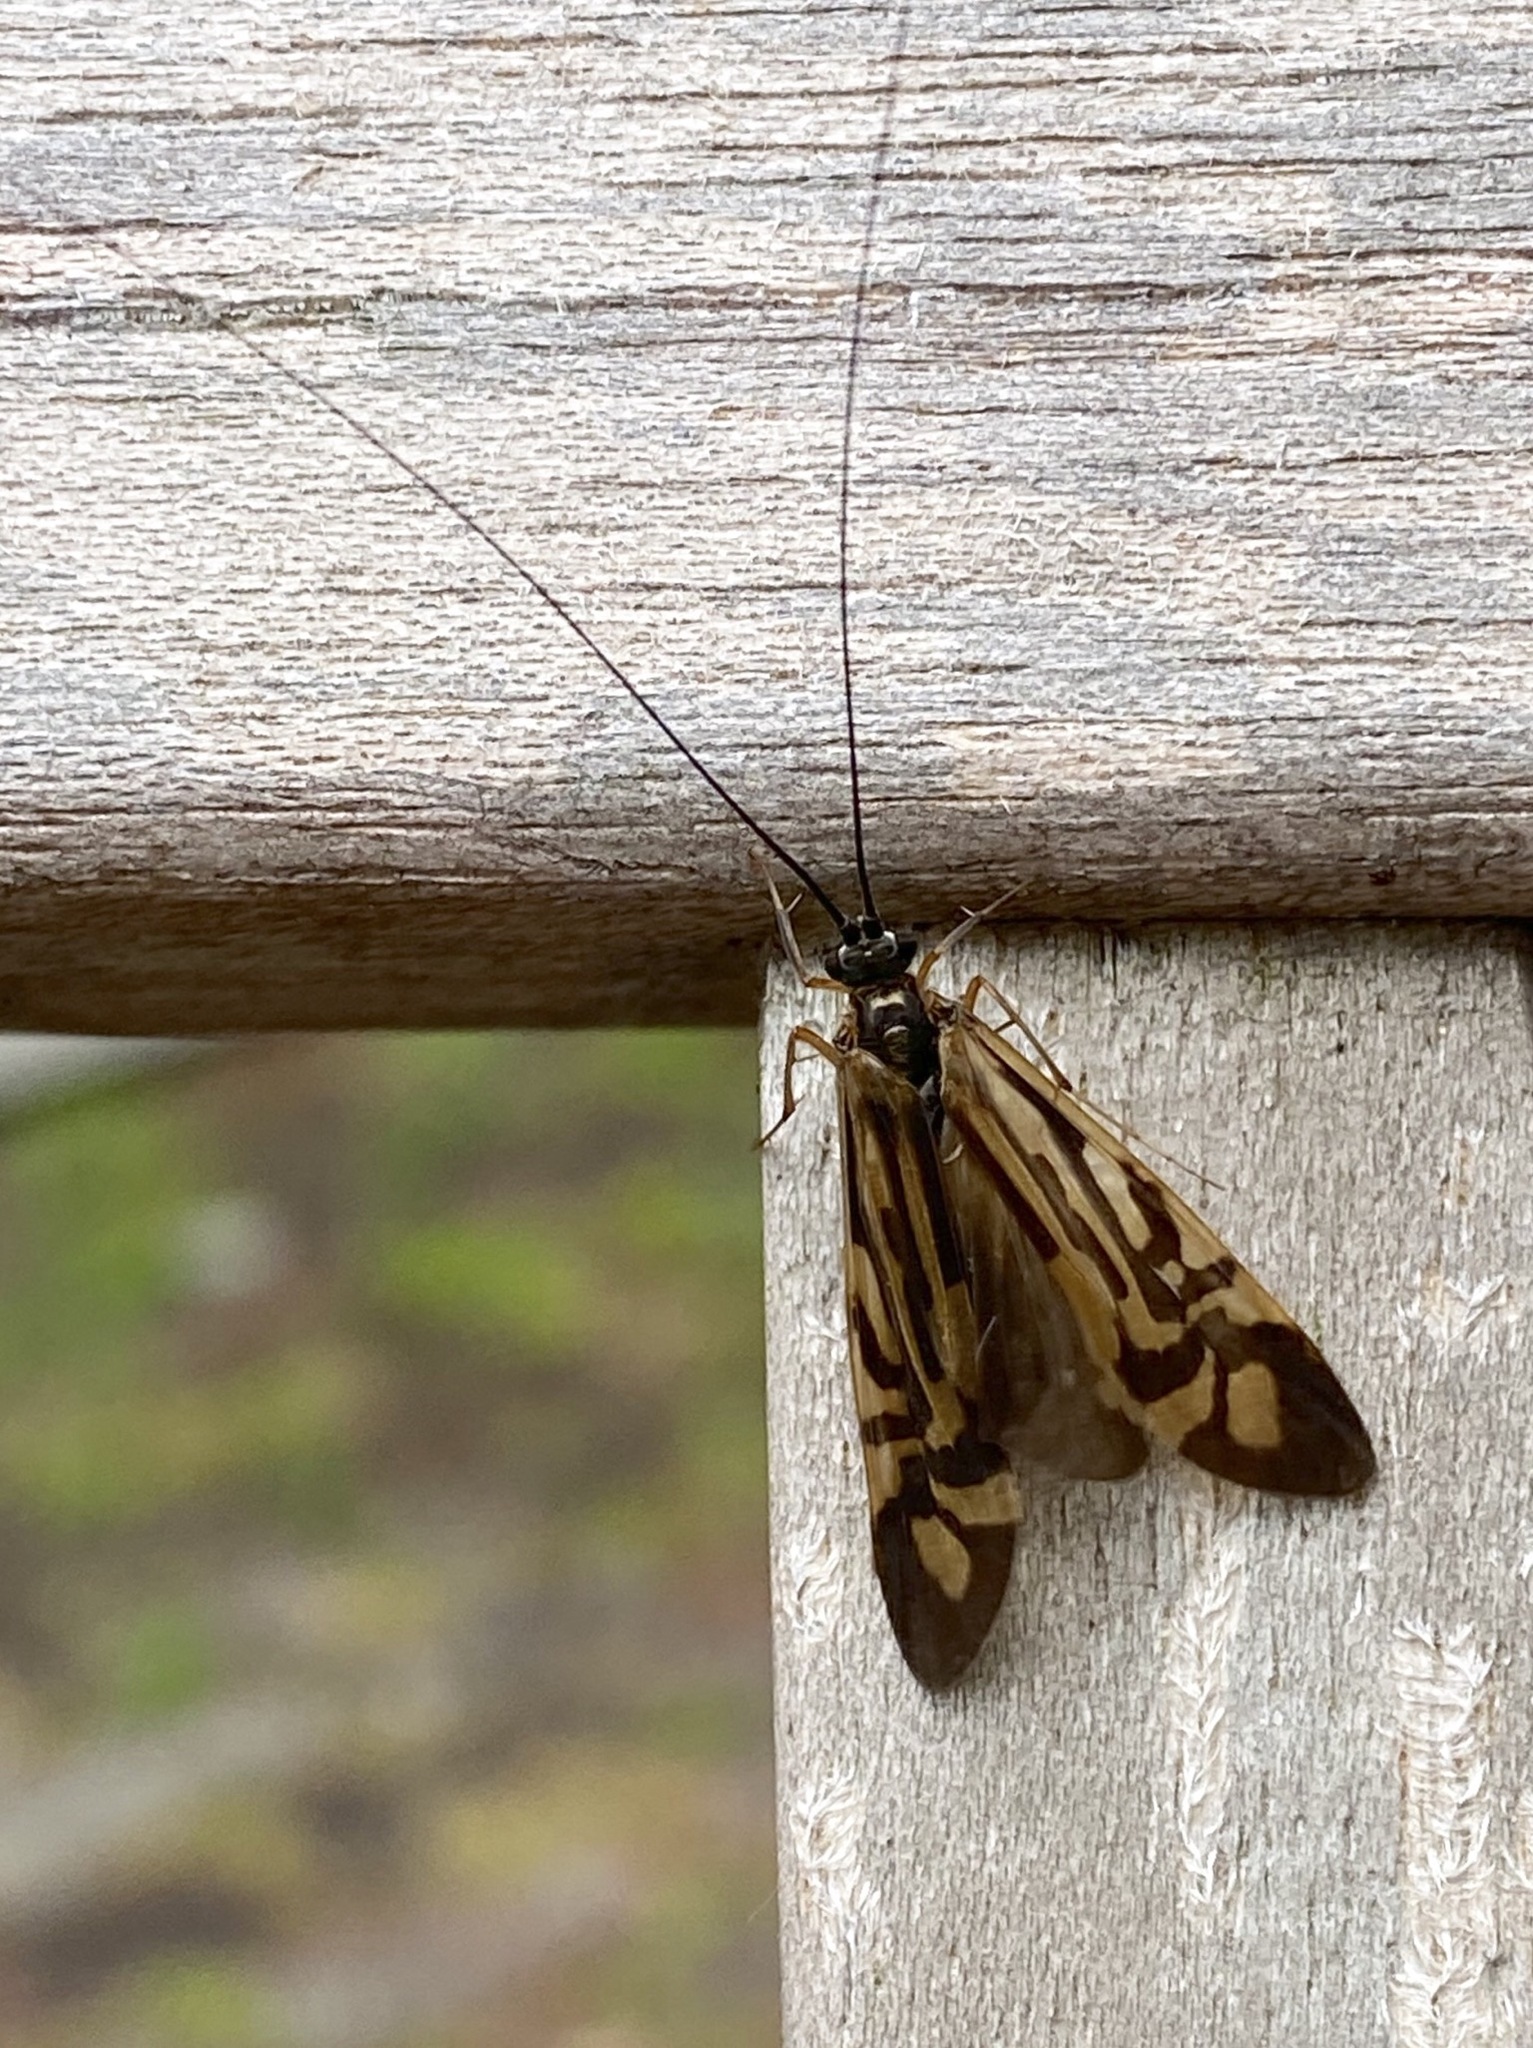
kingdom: Animalia
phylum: Arthropoda
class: Insecta
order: Trichoptera
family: Hydropsychidae
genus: Macrostemum
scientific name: Macrostemum zebratum
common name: Zebra caddisfly
